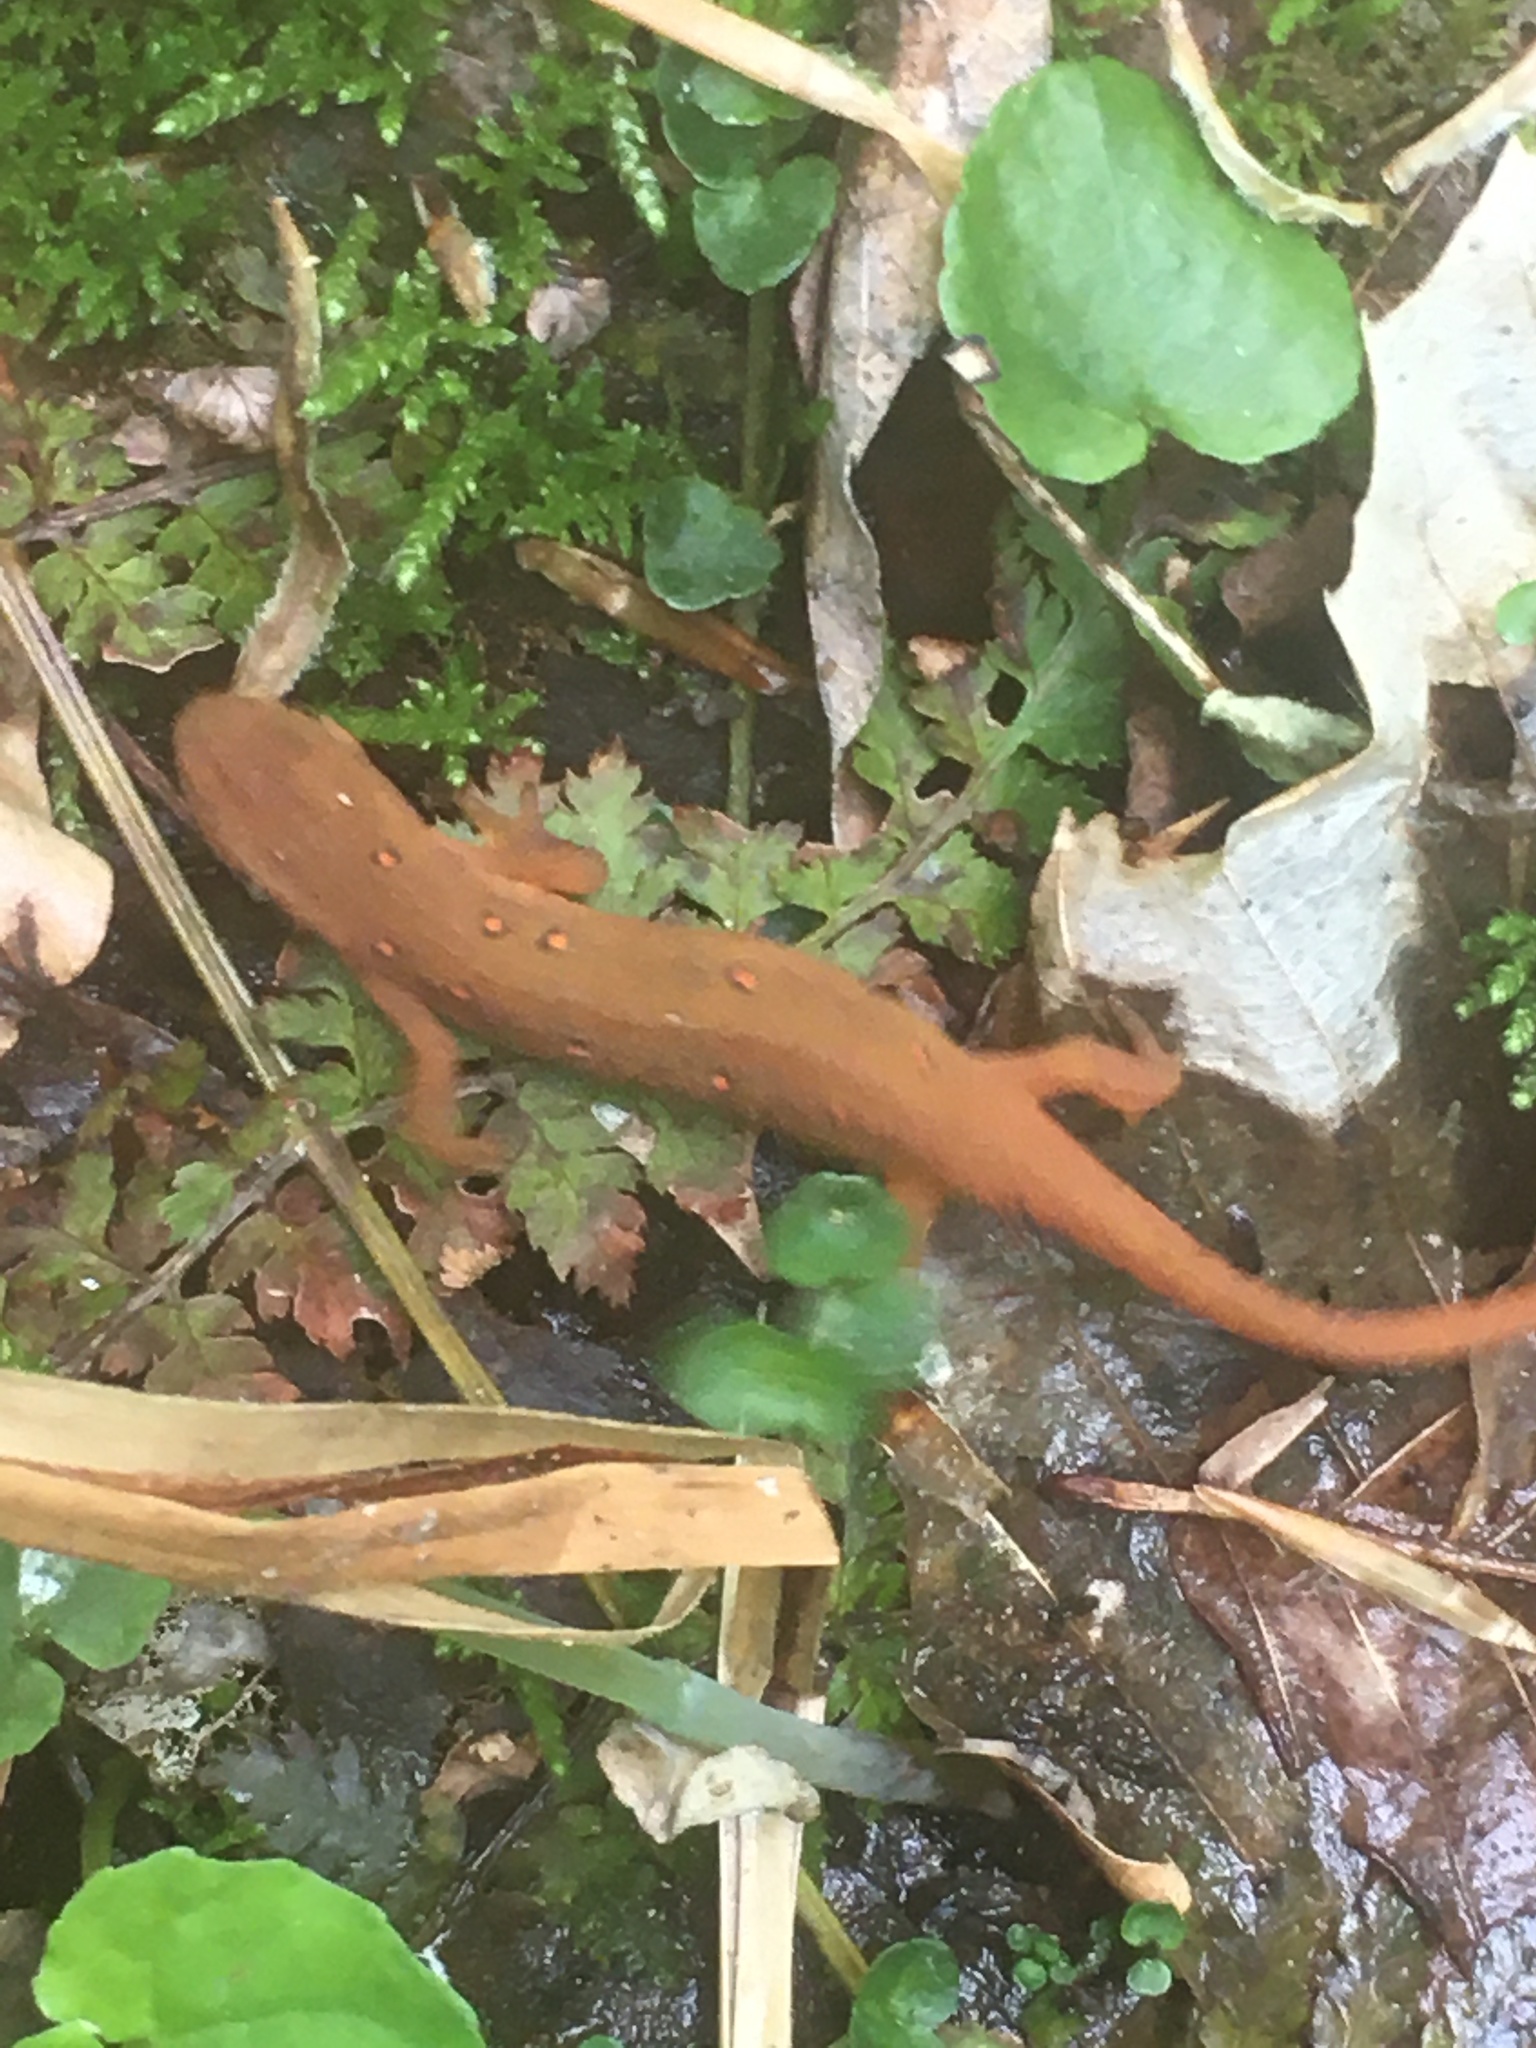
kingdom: Animalia
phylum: Chordata
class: Amphibia
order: Caudata
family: Salamandridae
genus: Notophthalmus
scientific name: Notophthalmus viridescens
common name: Eastern newt
